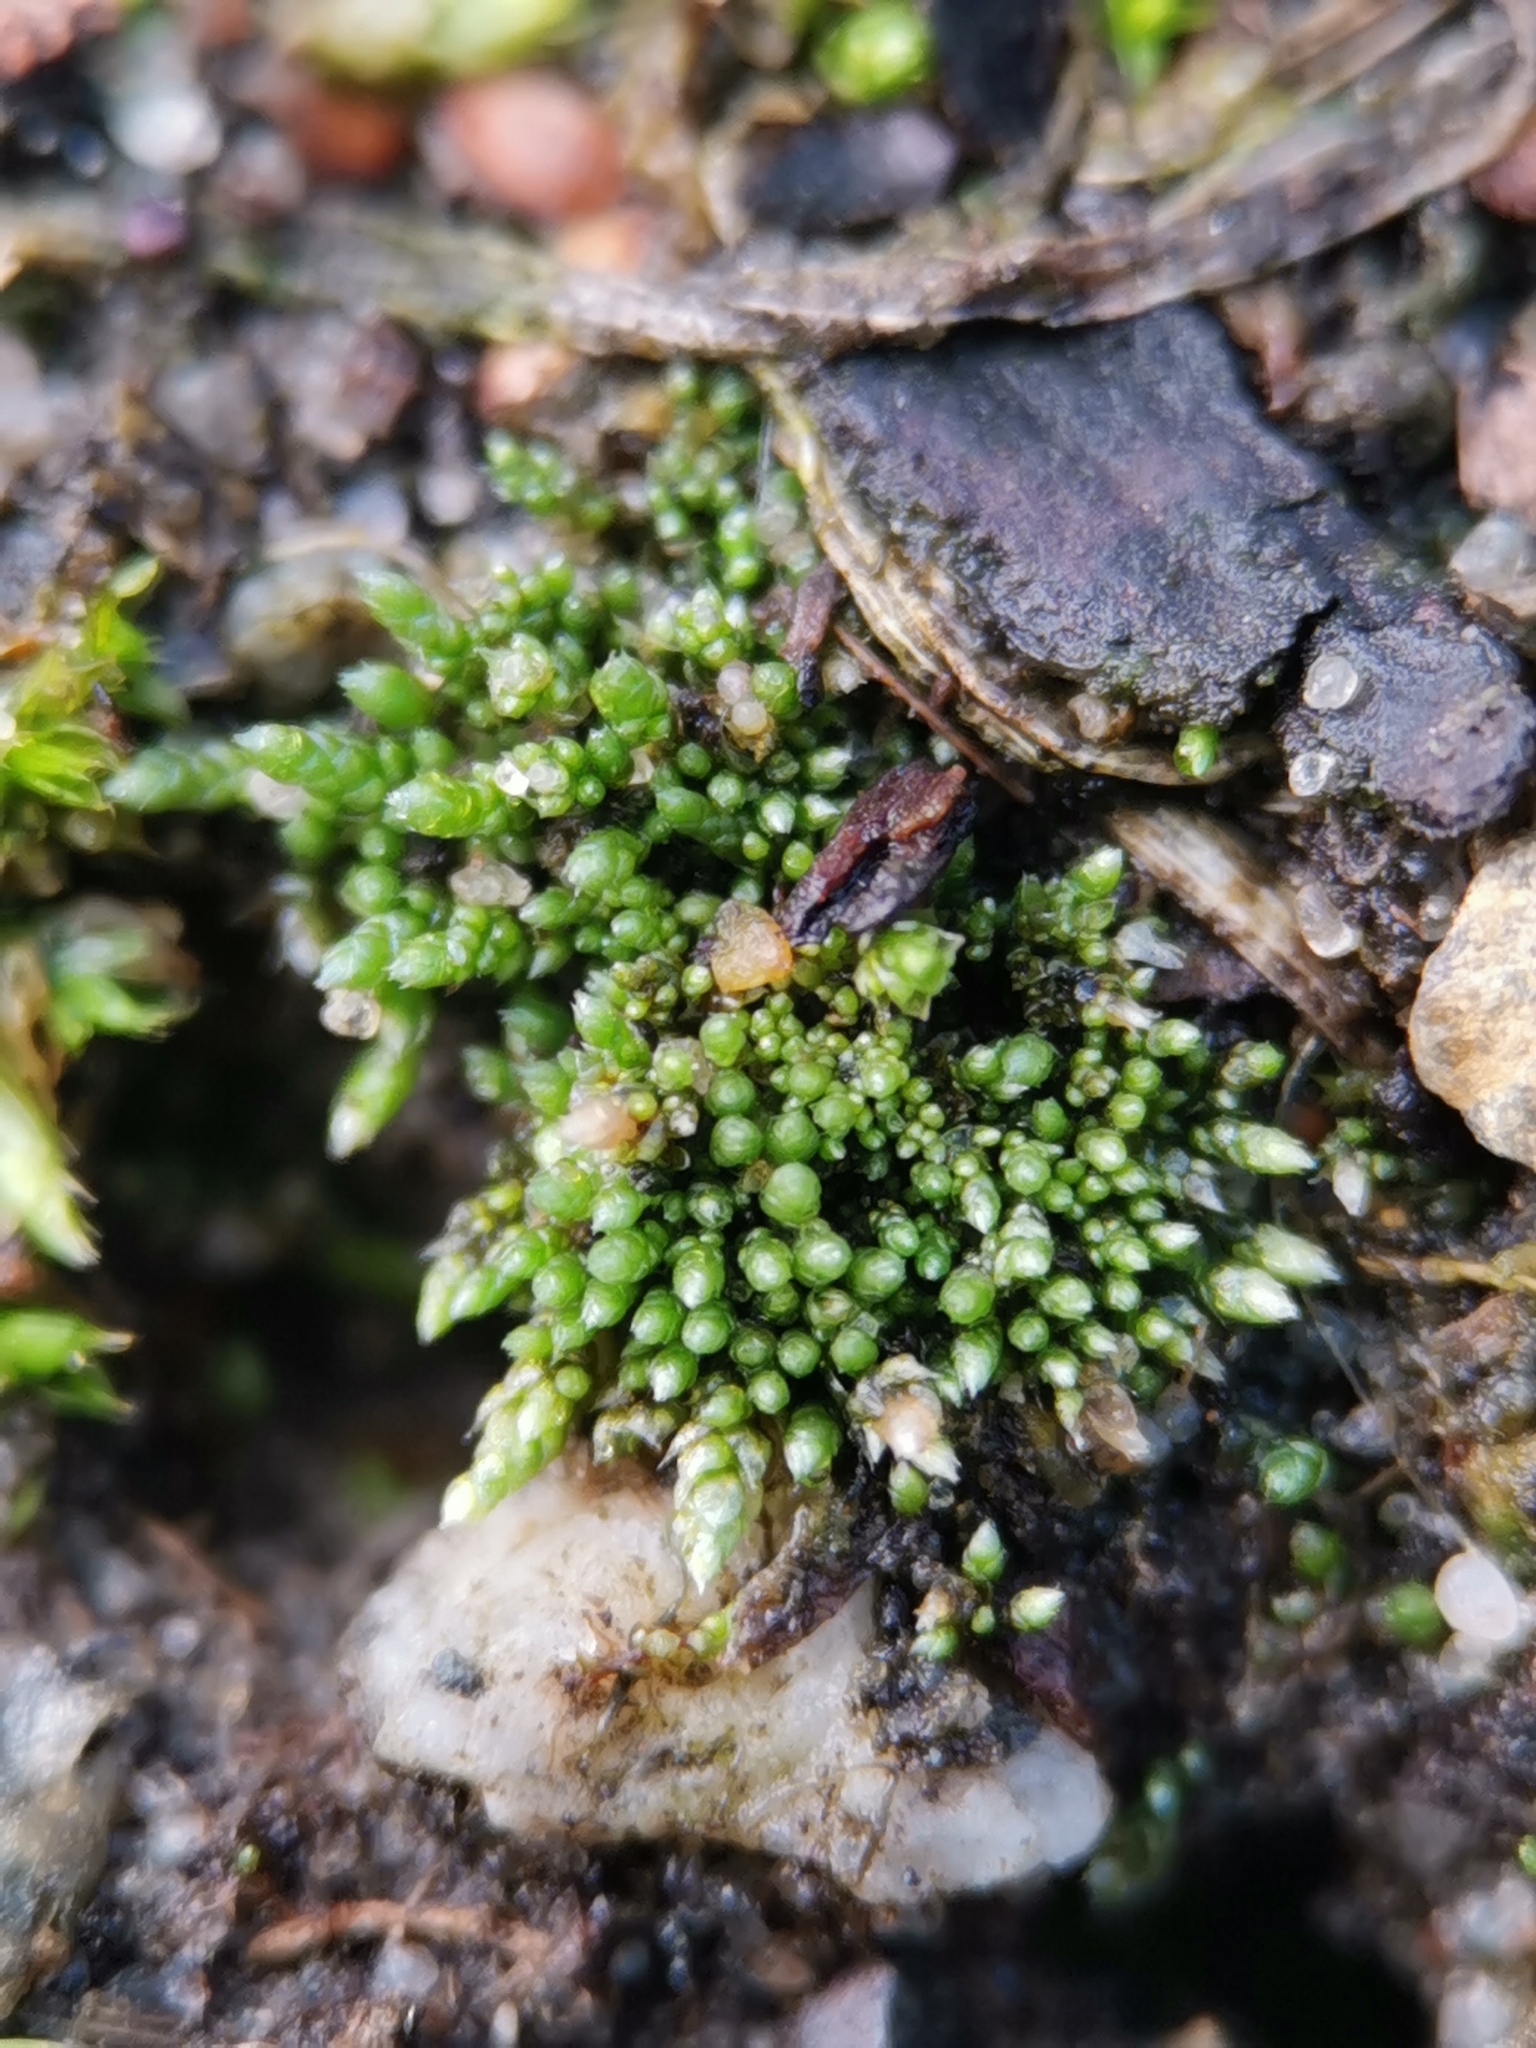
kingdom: Plantae
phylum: Bryophyta
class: Bryopsida
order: Bryales
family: Bryaceae
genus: Bryum
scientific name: Bryum argenteum
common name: Silver-moss
